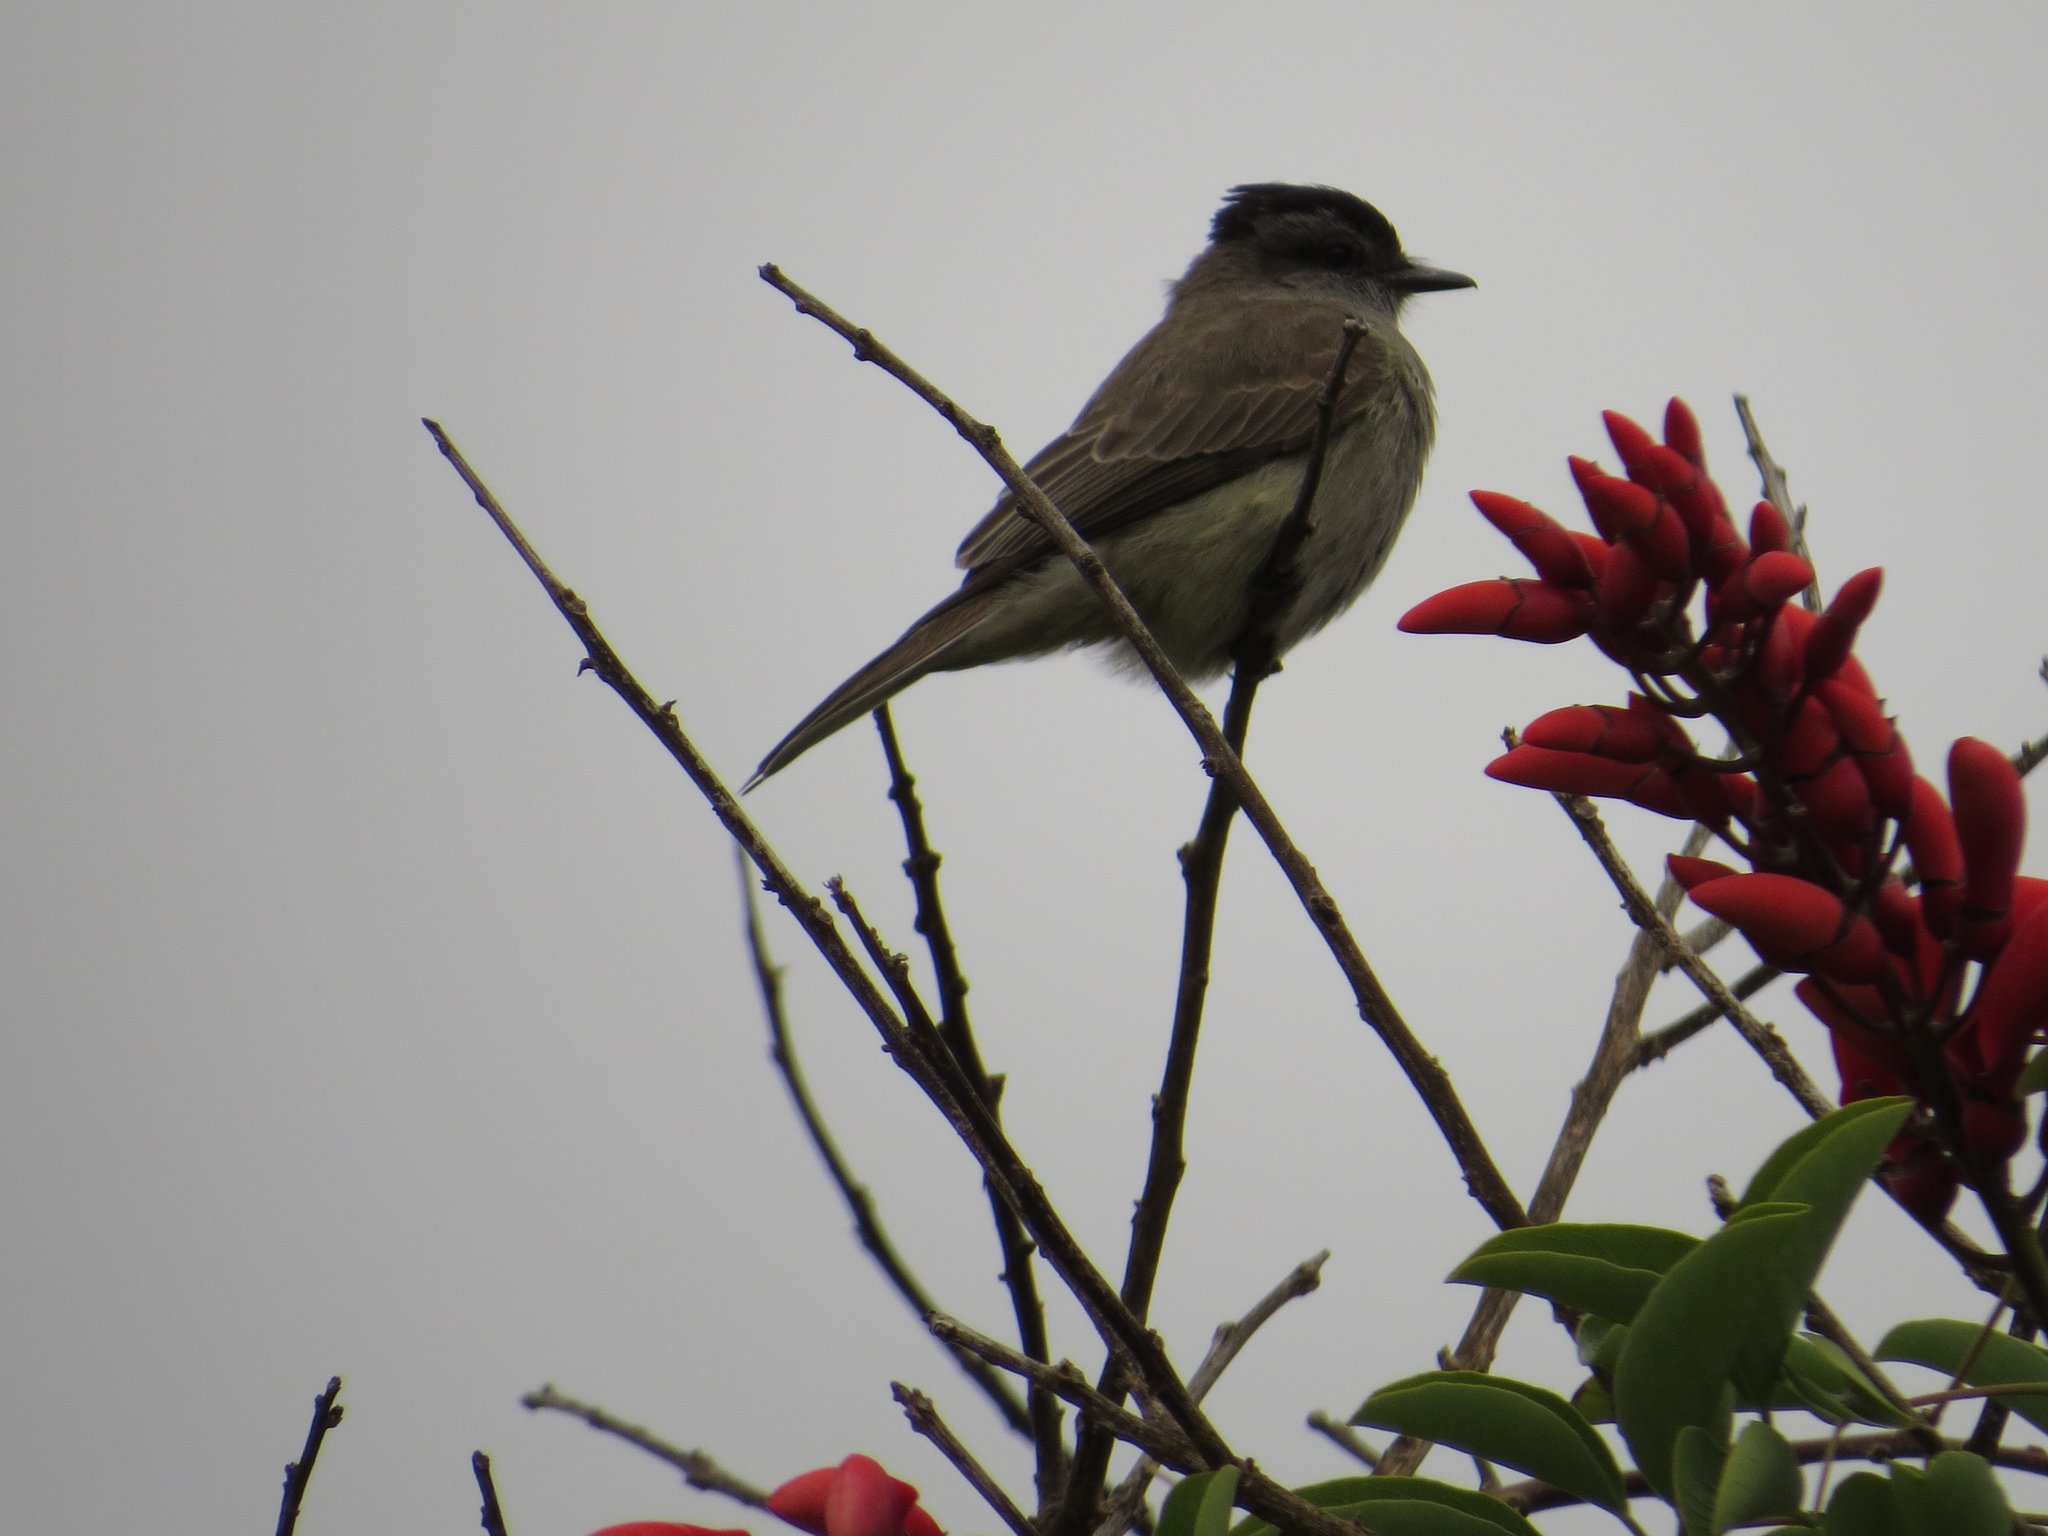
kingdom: Animalia
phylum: Chordata
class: Aves
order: Passeriformes
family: Tyrannidae
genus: Empidonomus
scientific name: Empidonomus aurantioatrocristatus
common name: Crowned slaty flycatcher
